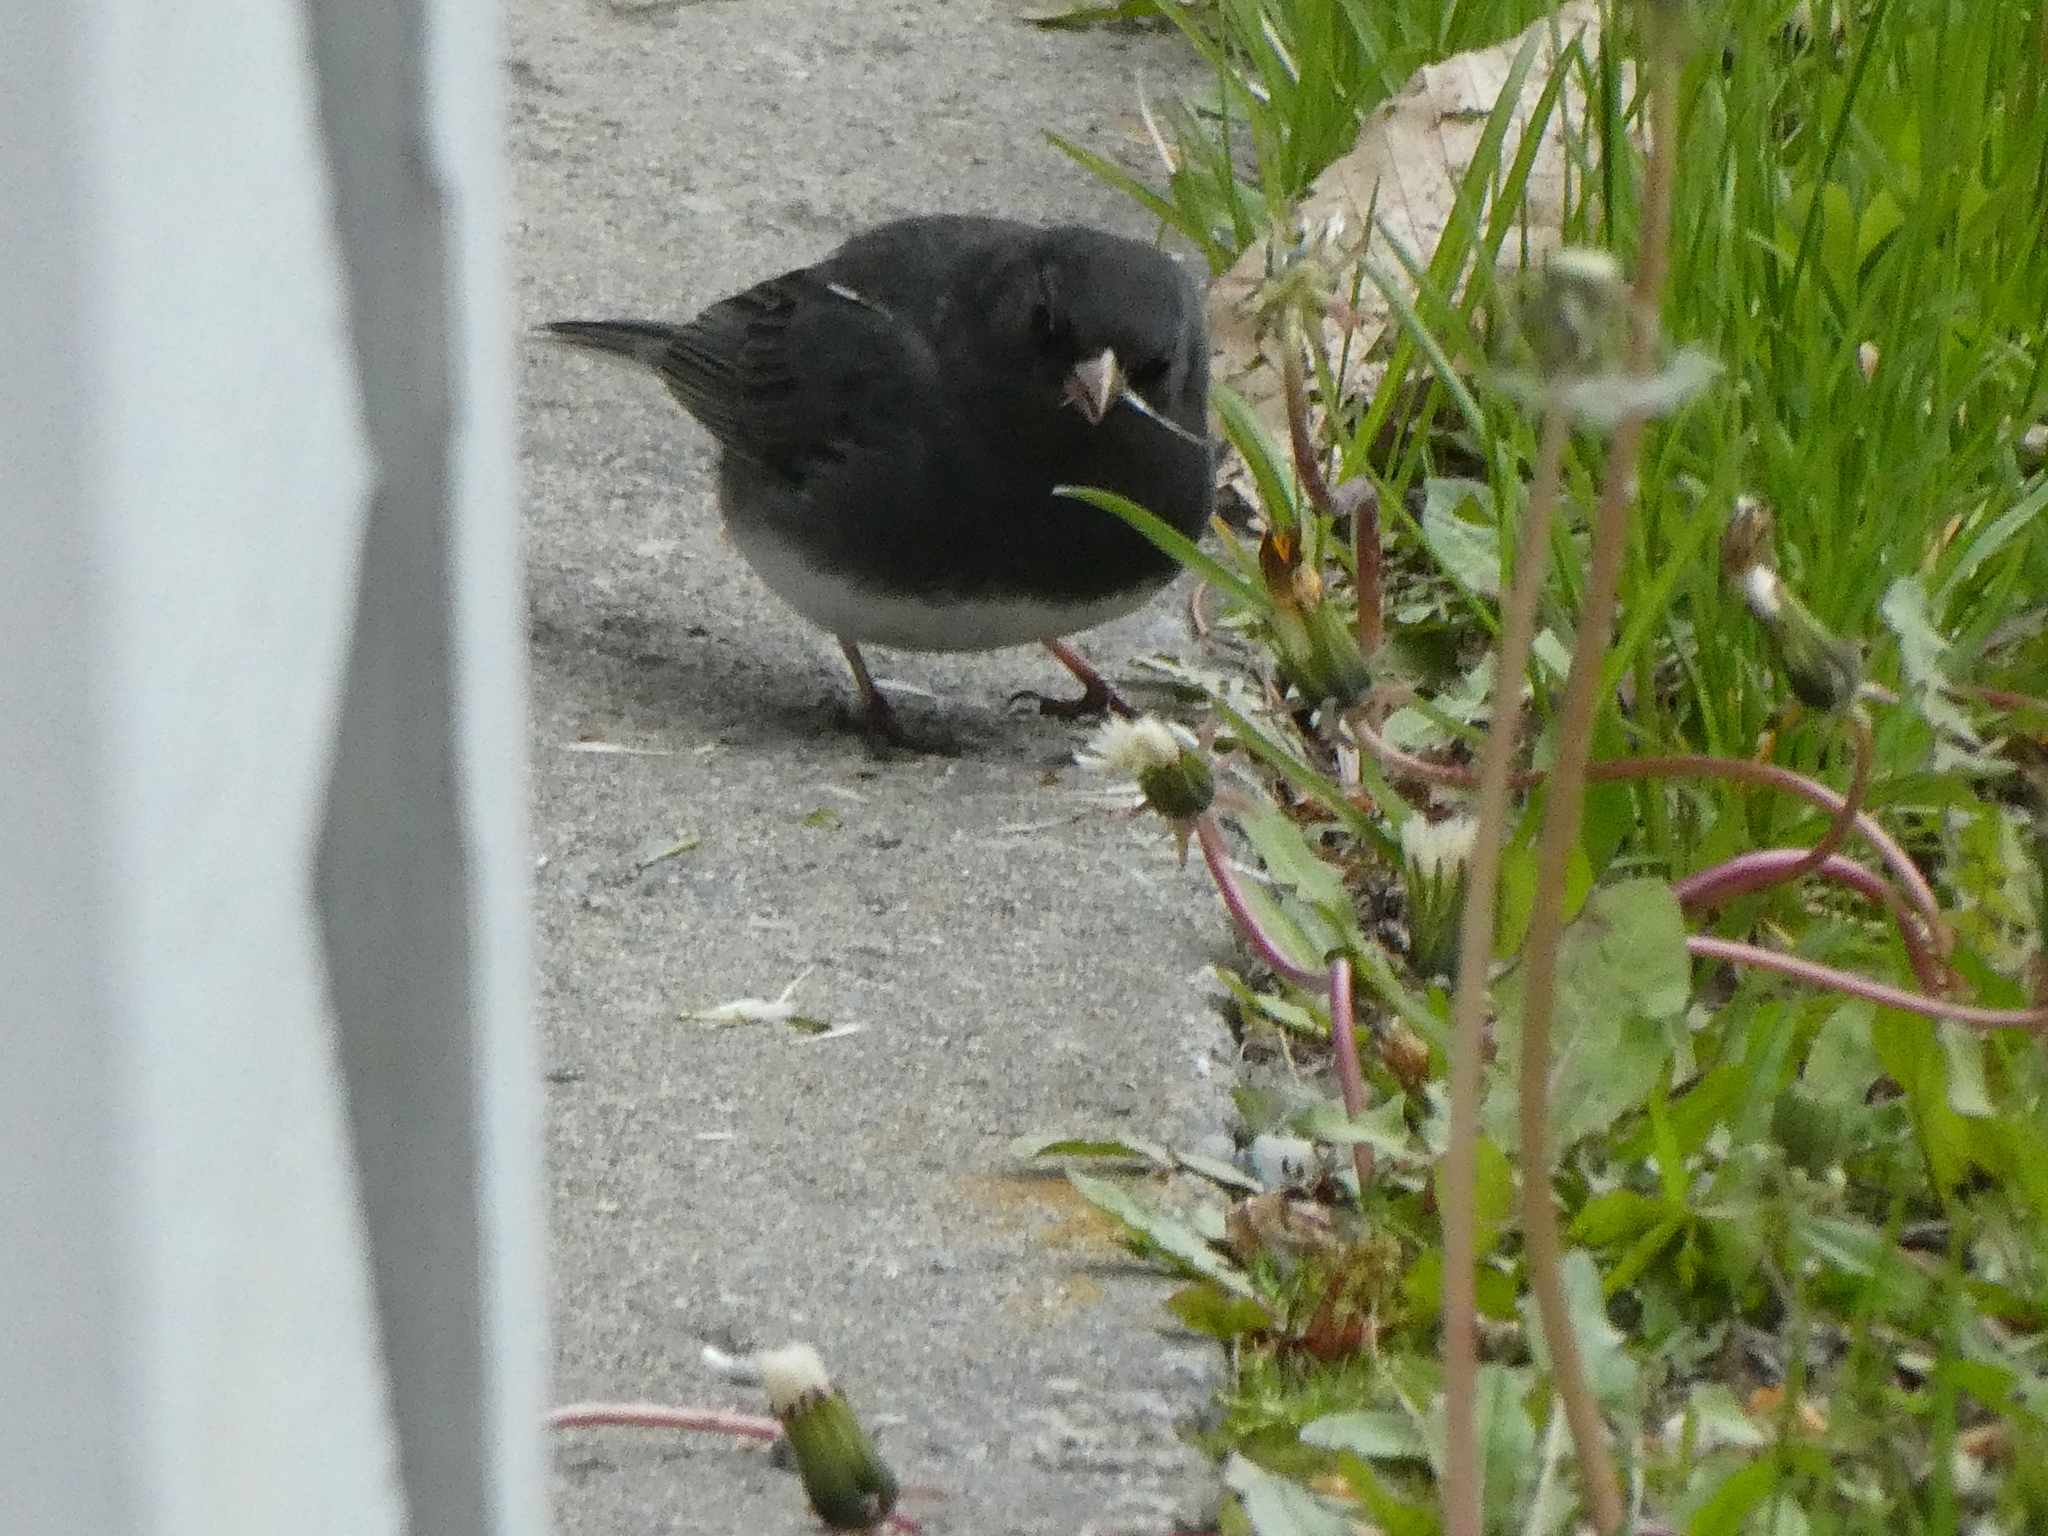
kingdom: Animalia
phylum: Chordata
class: Aves
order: Passeriformes
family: Passerellidae
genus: Junco
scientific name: Junco hyemalis
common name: Dark-eyed junco
